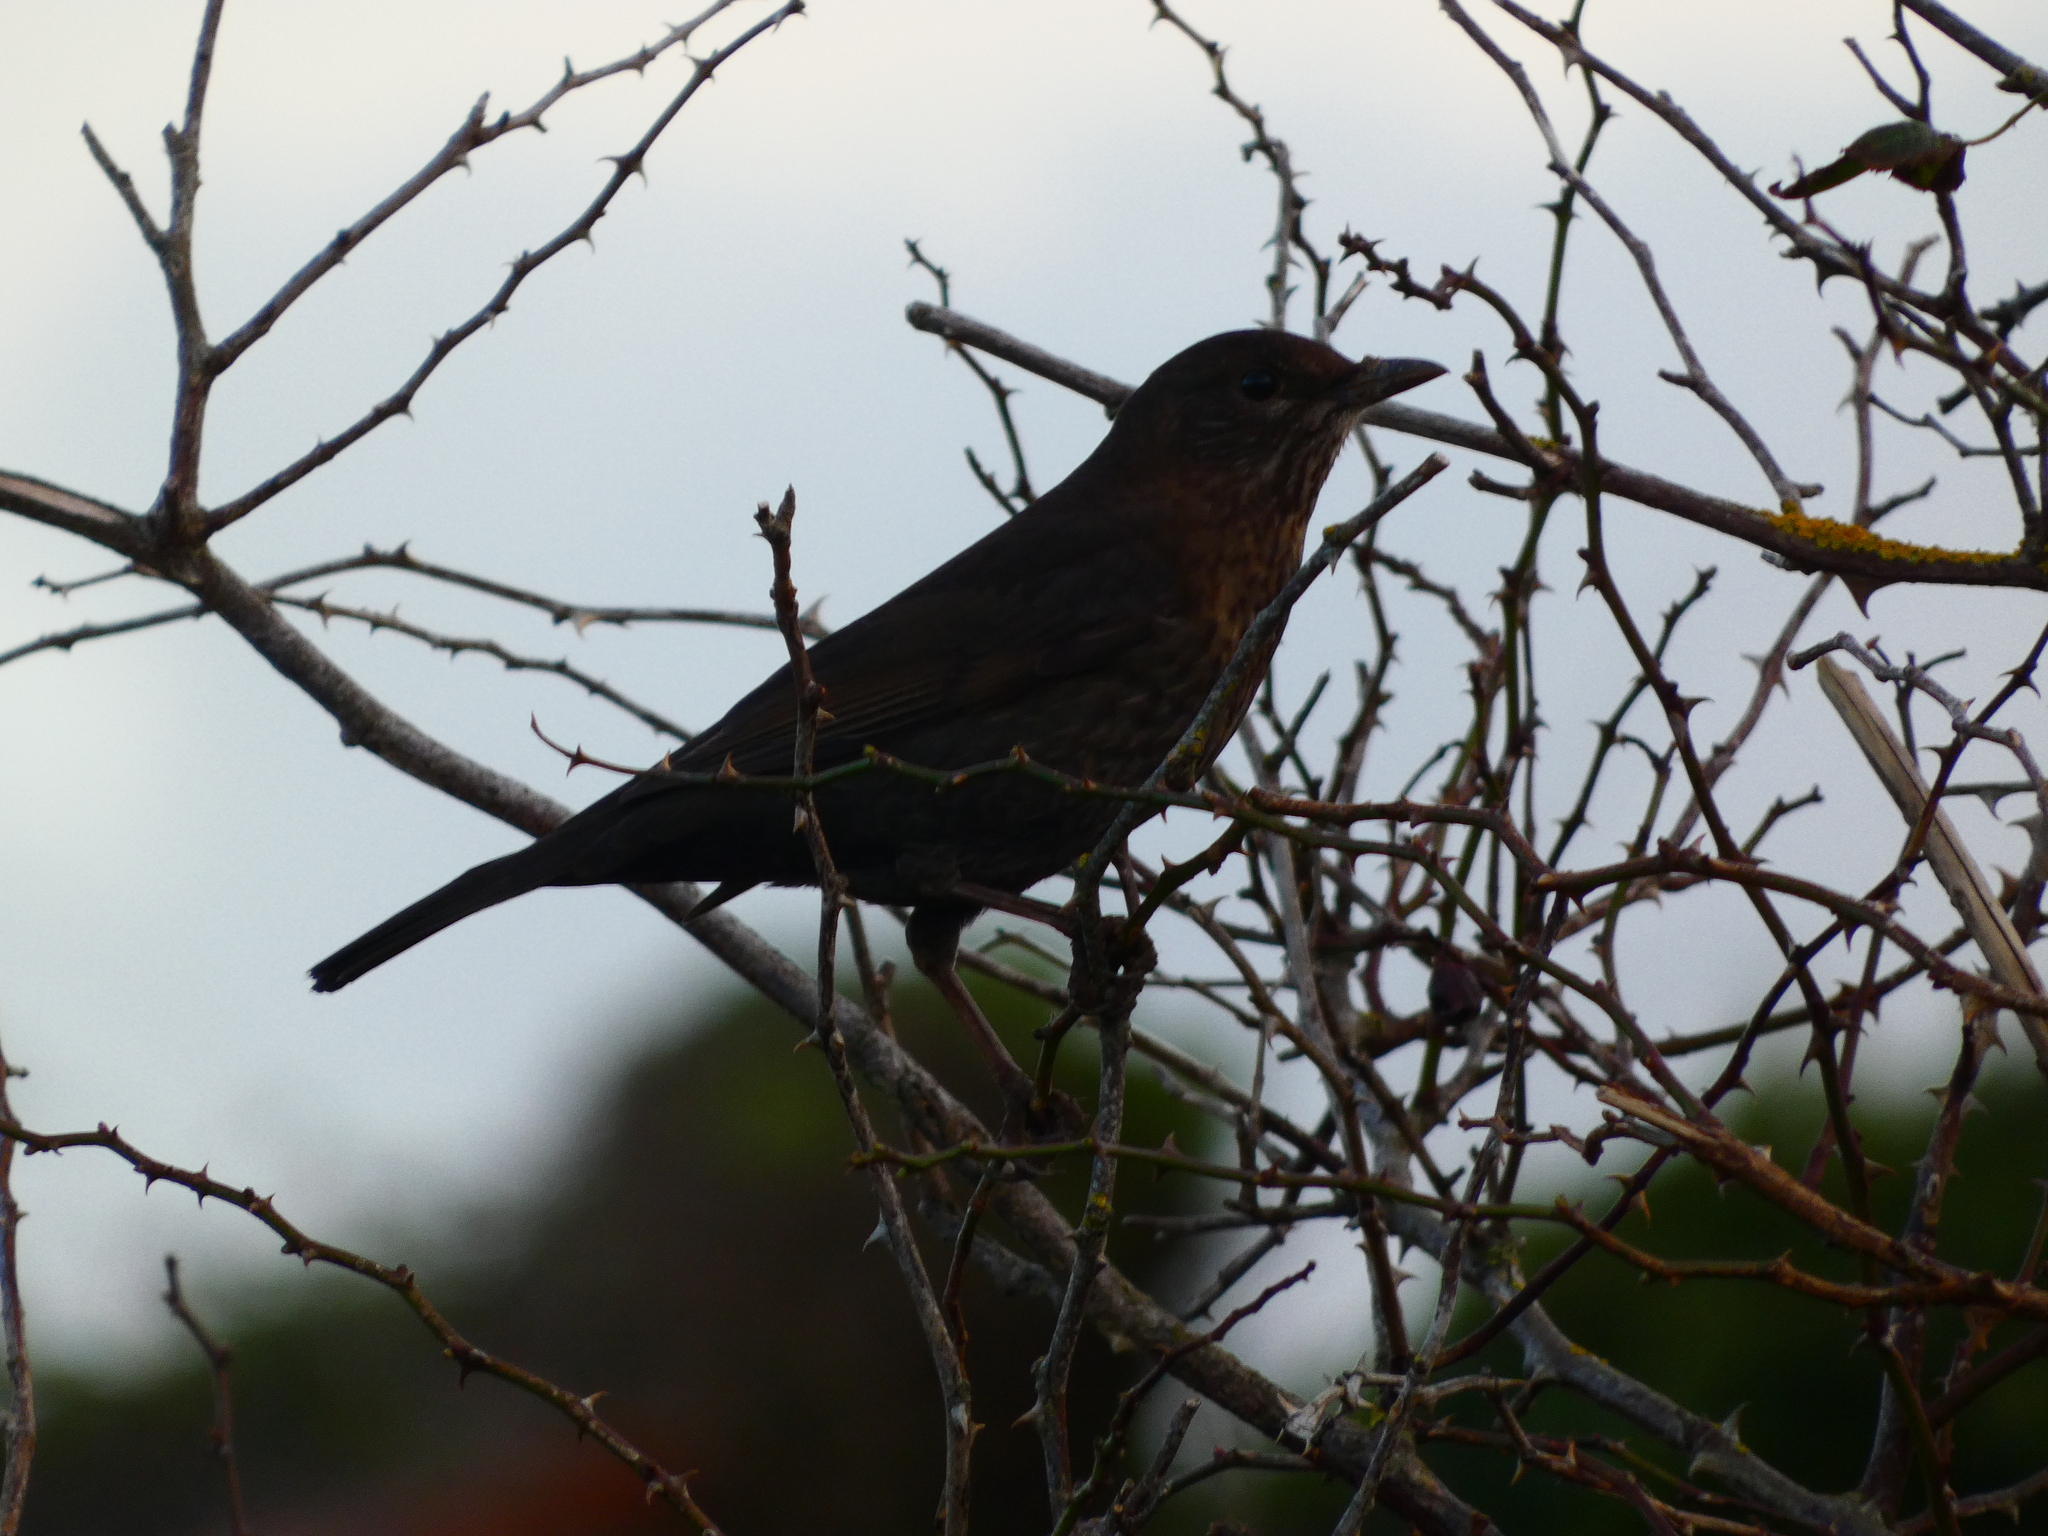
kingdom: Animalia
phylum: Chordata
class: Aves
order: Passeriformes
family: Turdidae
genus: Turdus
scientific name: Turdus merula
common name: Common blackbird
